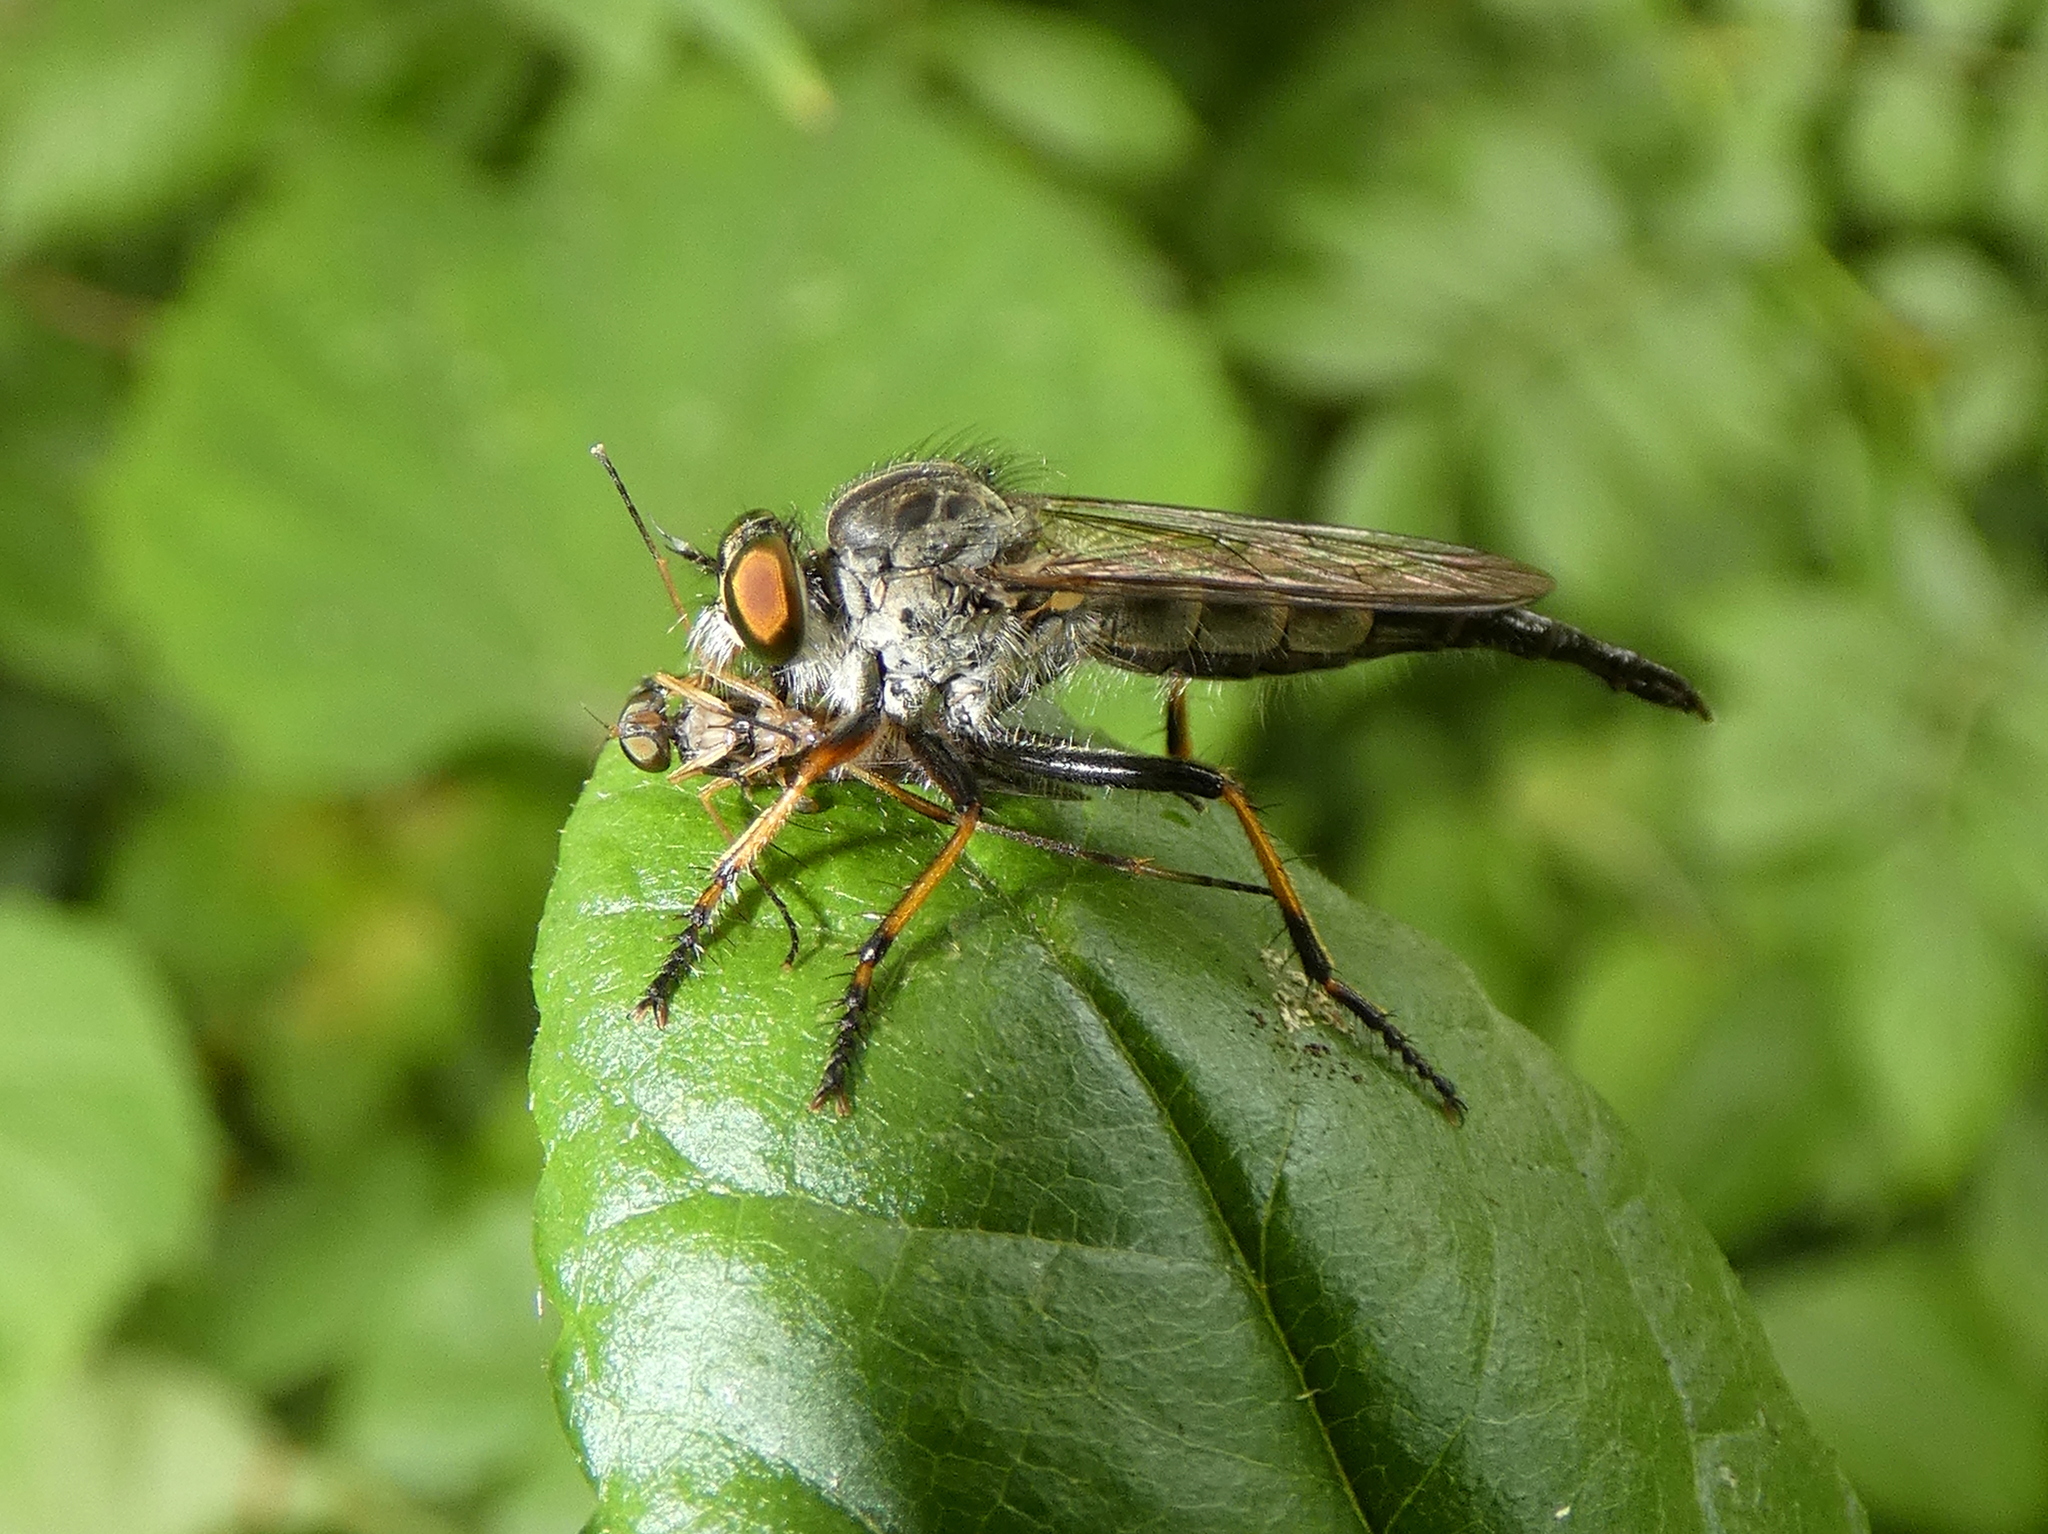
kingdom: Animalia
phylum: Arthropoda
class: Insecta
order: Diptera
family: Asilidae
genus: Asilus
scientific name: Asilus flavofemoratus
